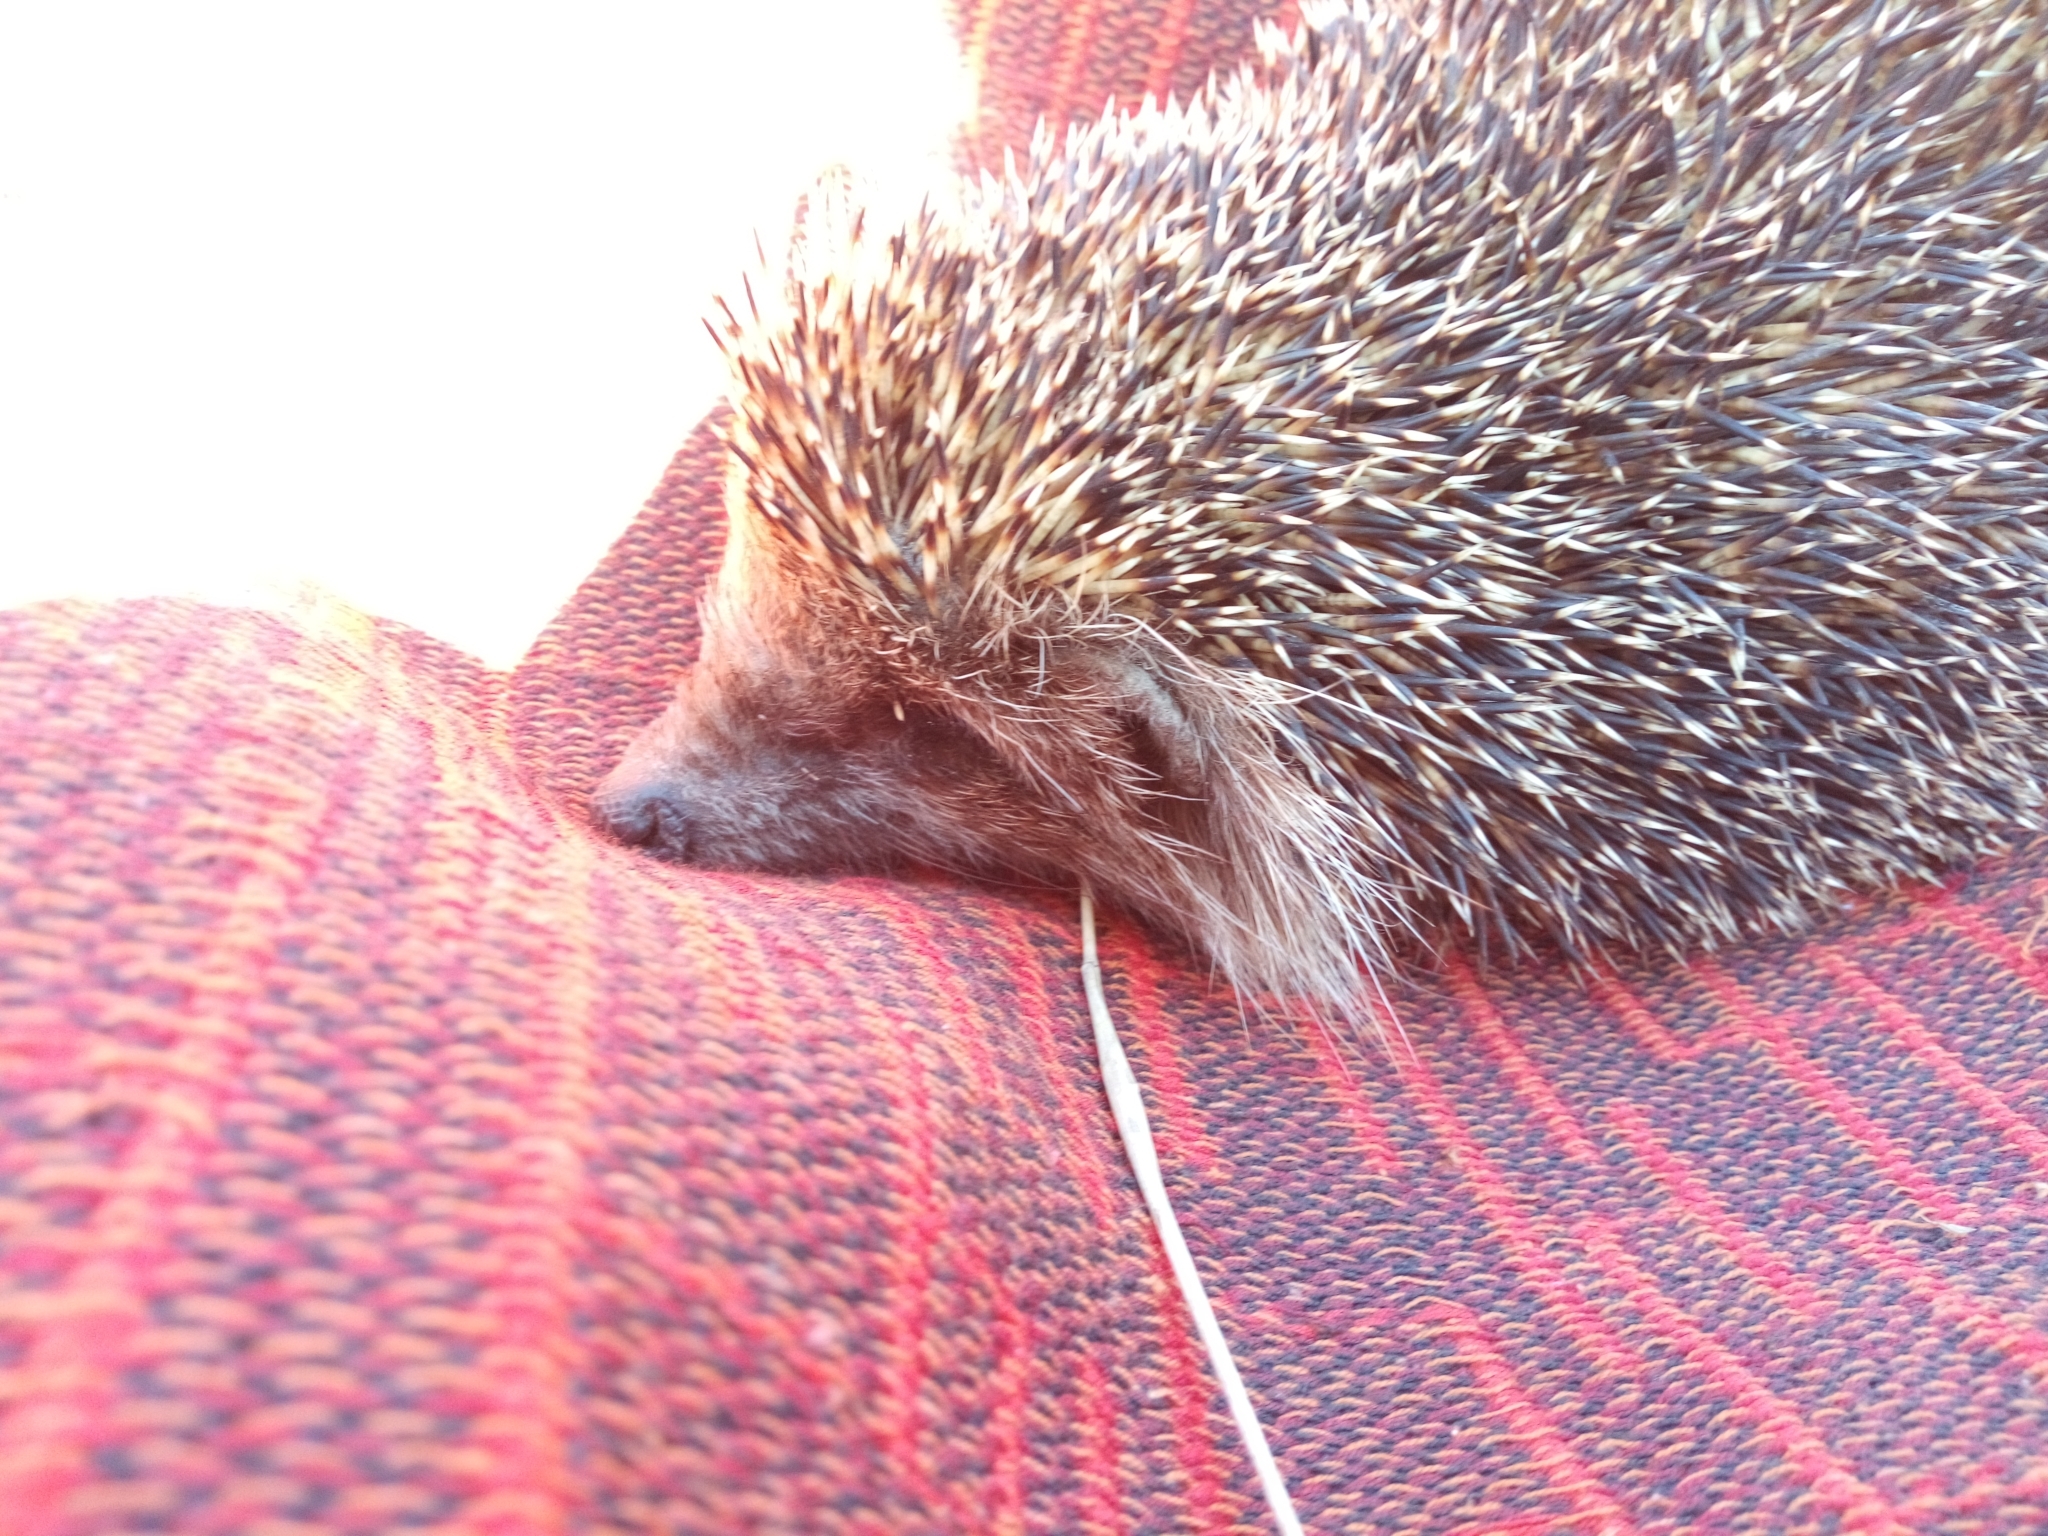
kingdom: Animalia
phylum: Chordata
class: Mammalia
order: Erinaceomorpha
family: Erinaceidae
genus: Erinaceus
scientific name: Erinaceus roumanicus
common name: Northern white-breasted hedgehog
